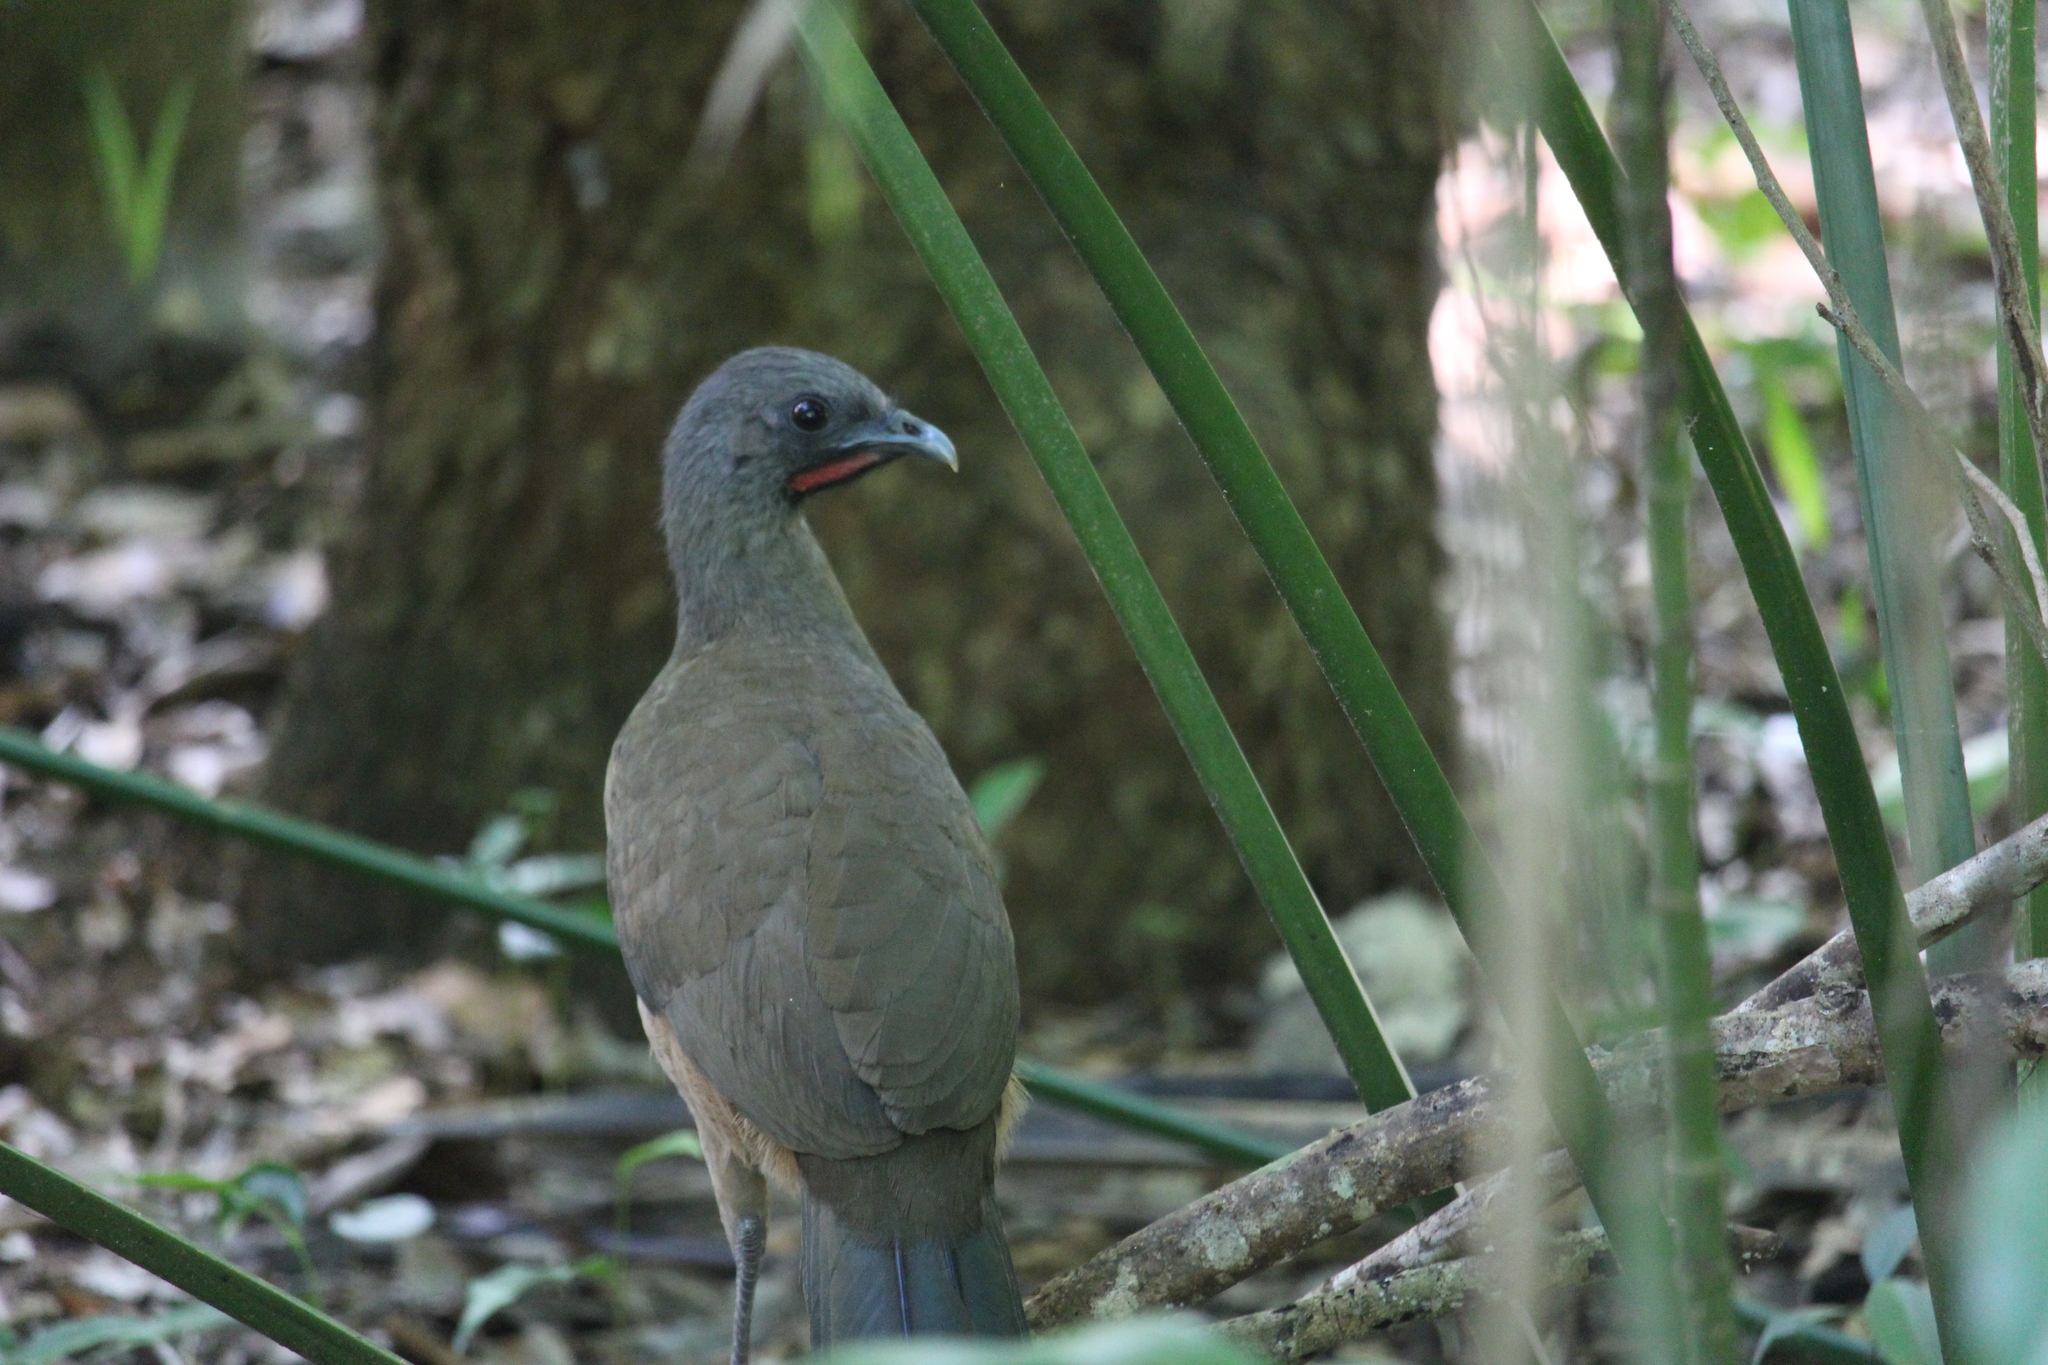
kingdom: Animalia
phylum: Chordata
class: Aves
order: Galliformes
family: Cracidae
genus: Ortalis
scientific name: Ortalis vetula
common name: Plain chachalaca
